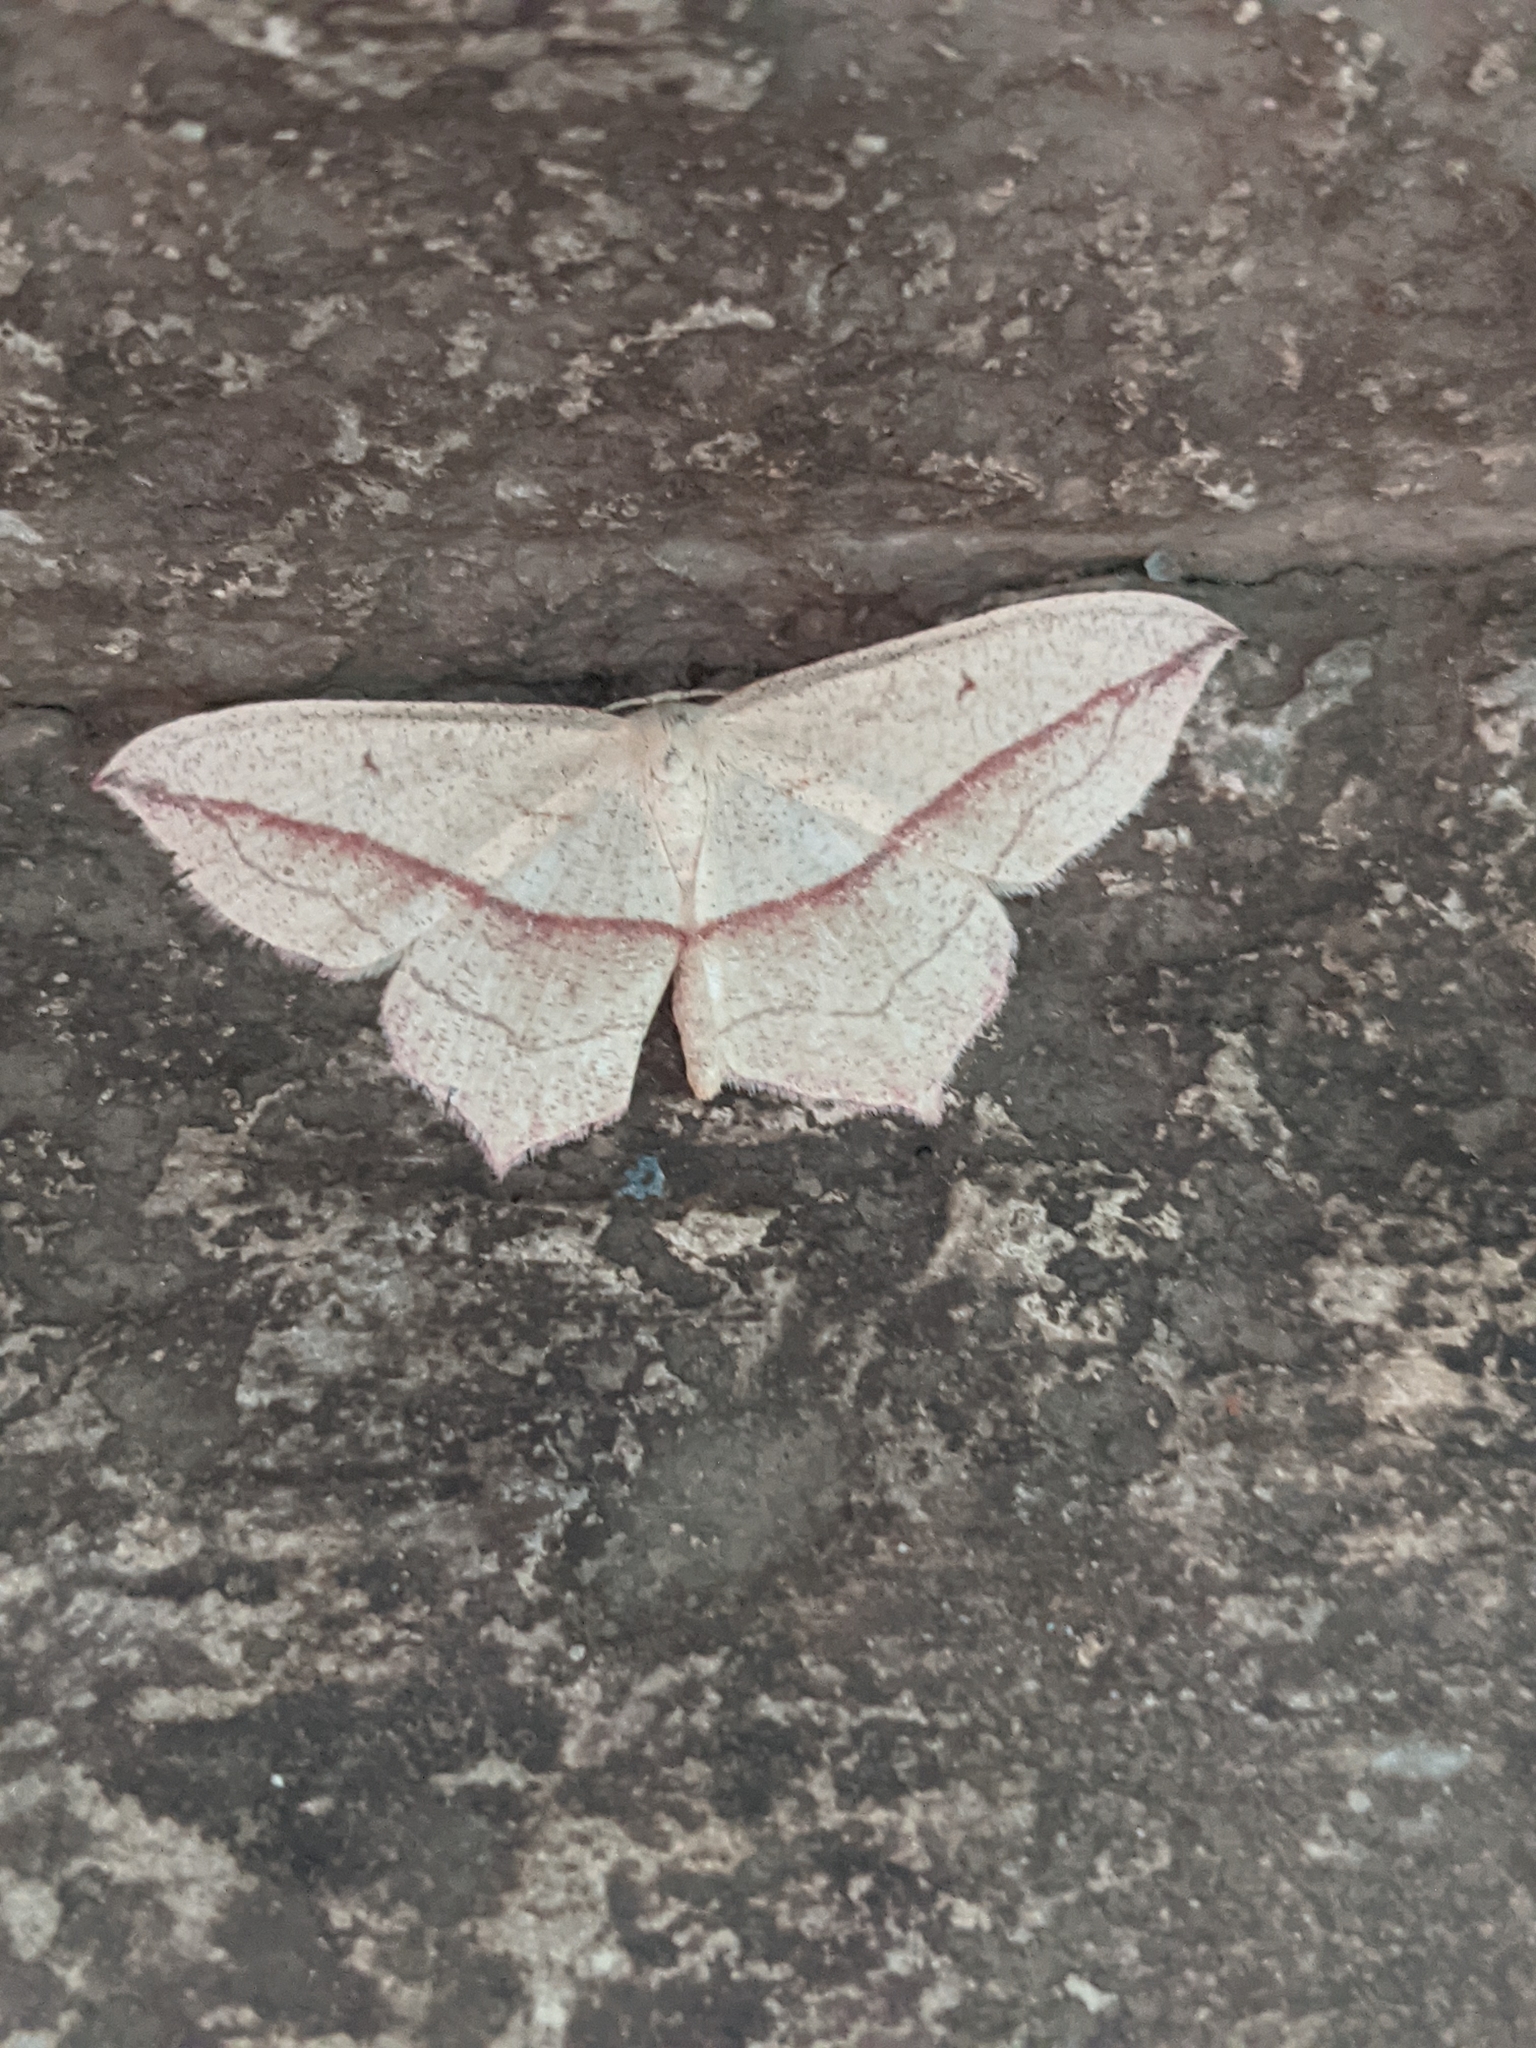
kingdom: Animalia
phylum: Arthropoda
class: Insecta
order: Lepidoptera
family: Geometridae
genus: Timandra
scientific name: Timandra comae
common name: Blood-vein
